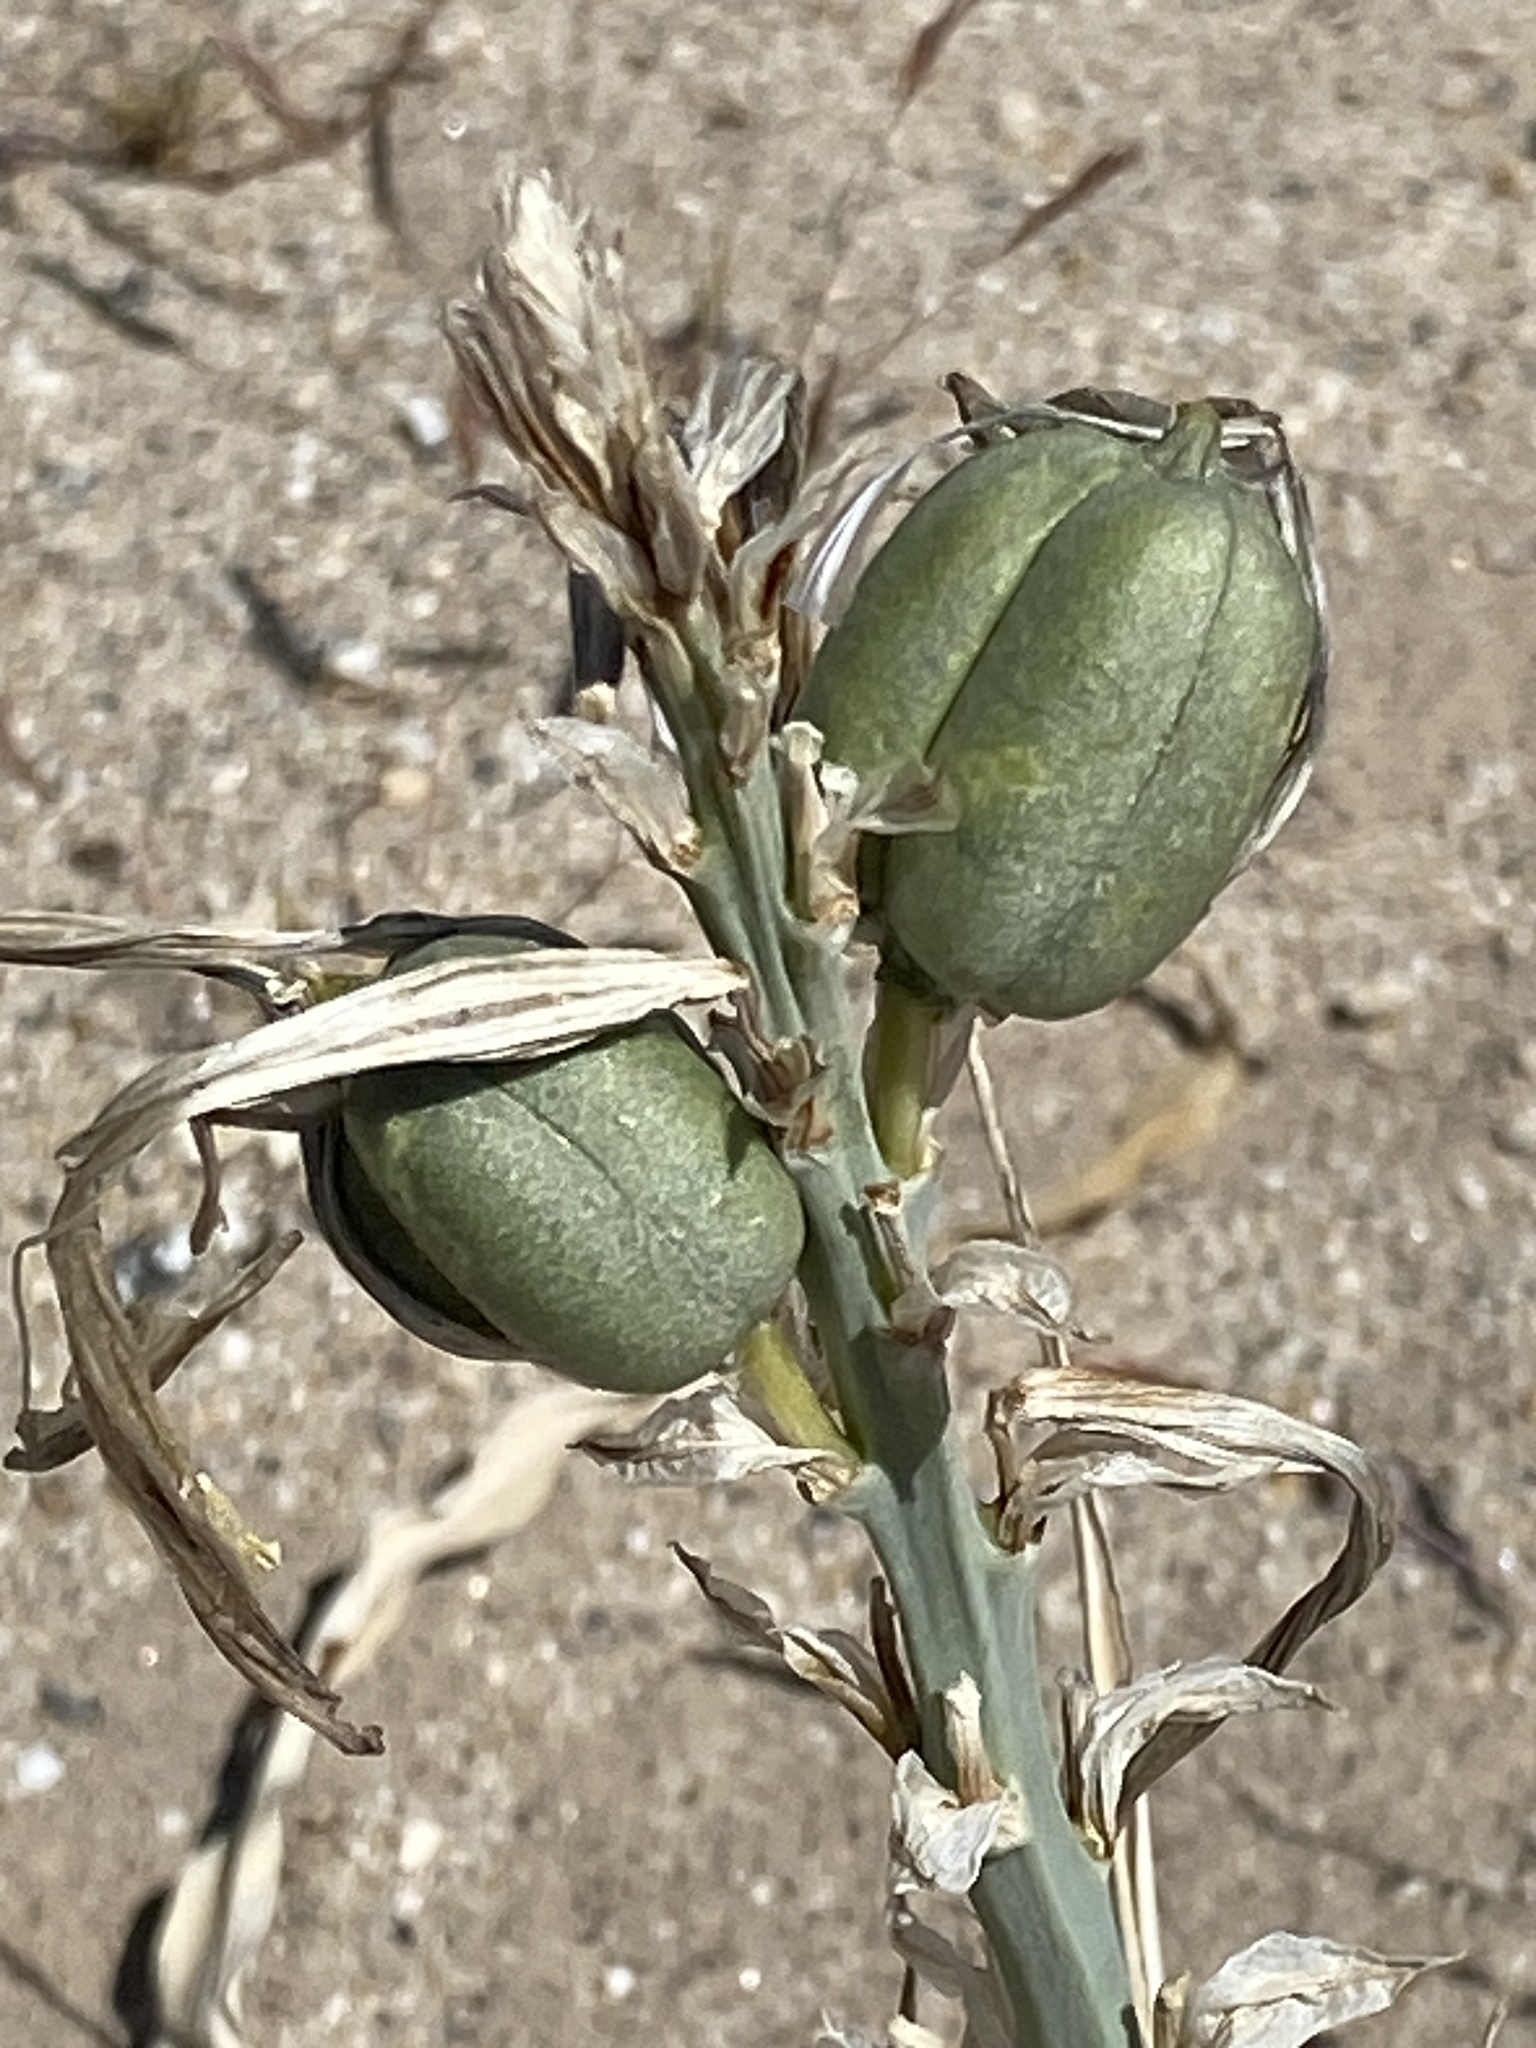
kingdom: Plantae
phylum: Tracheophyta
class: Liliopsida
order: Asparagales
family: Asparagaceae
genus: Hesperocallis
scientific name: Hesperocallis undulata
